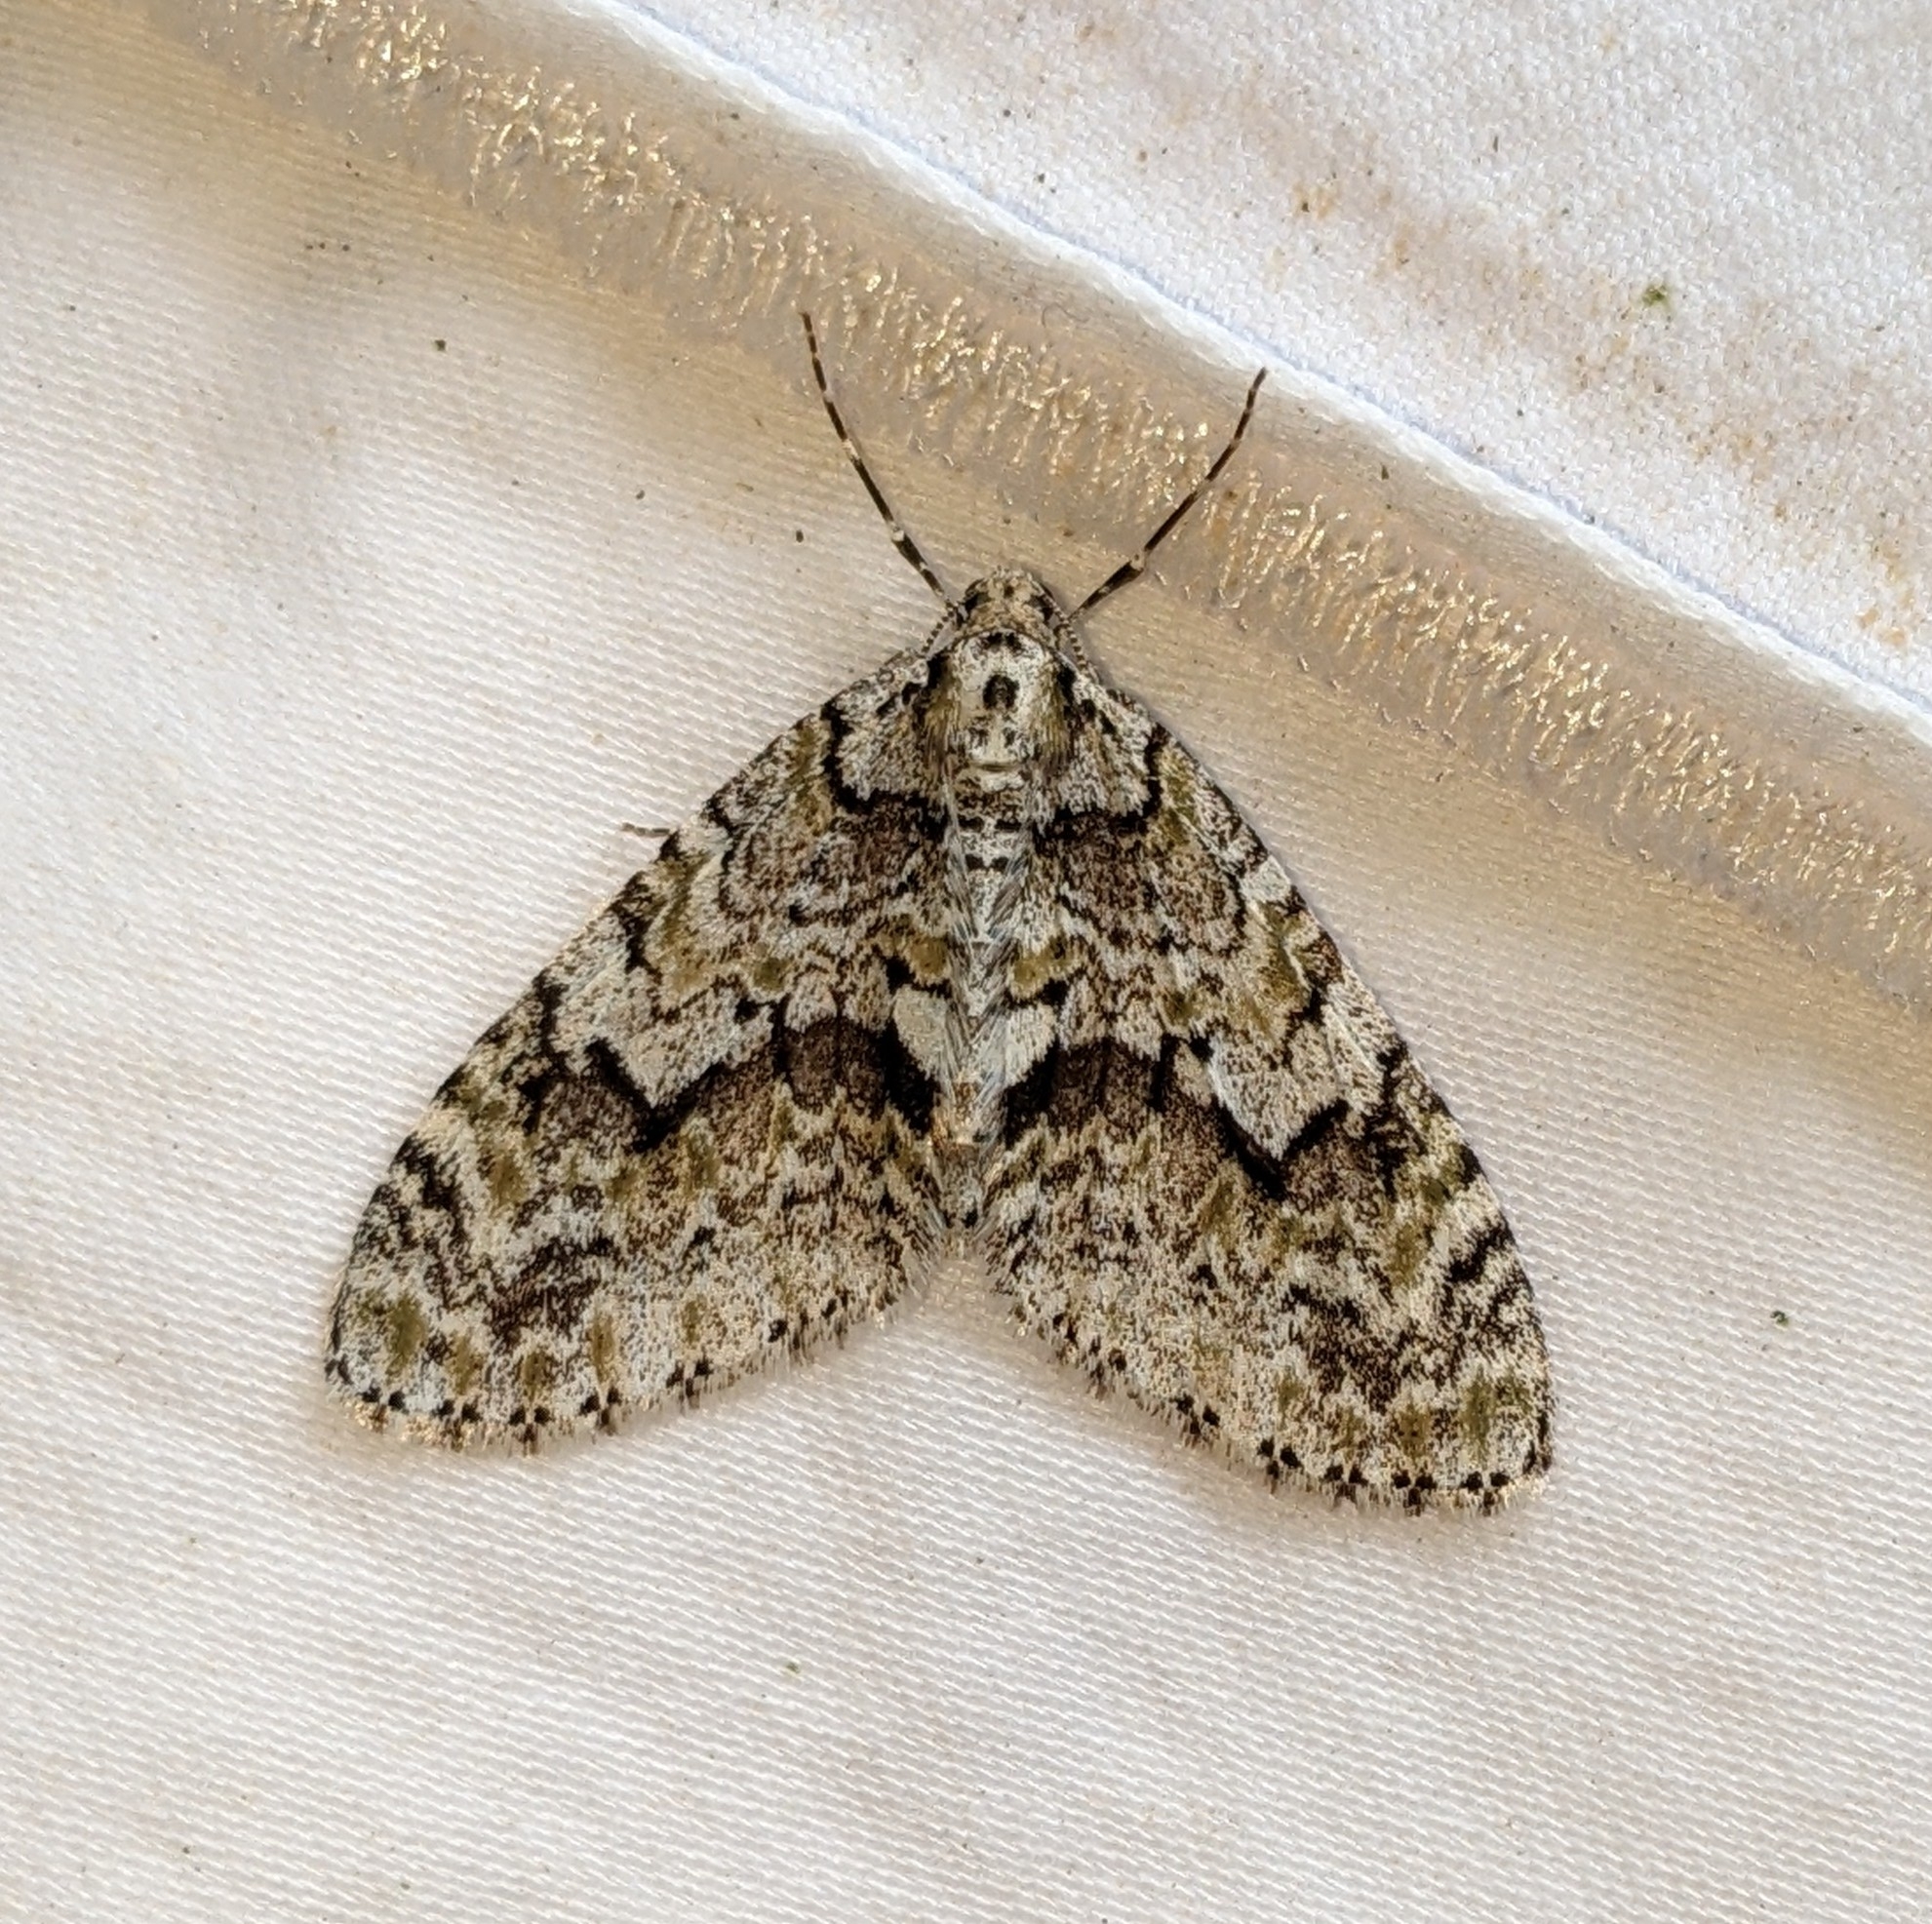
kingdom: Animalia
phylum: Arthropoda
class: Insecta
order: Lepidoptera
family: Geometridae
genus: Cladara
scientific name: Cladara limitaria
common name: Mottled gray carpet
